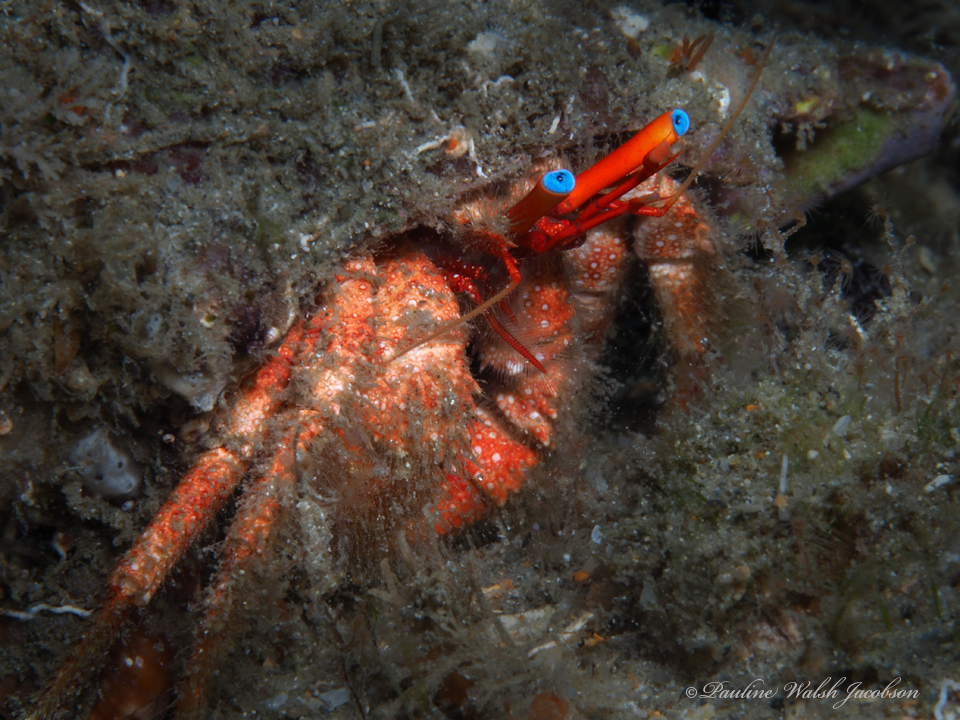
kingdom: Animalia
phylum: Arthropoda
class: Malacostraca
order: Decapoda
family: Diogenidae
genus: Paguristes
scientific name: Paguristes sericeus
